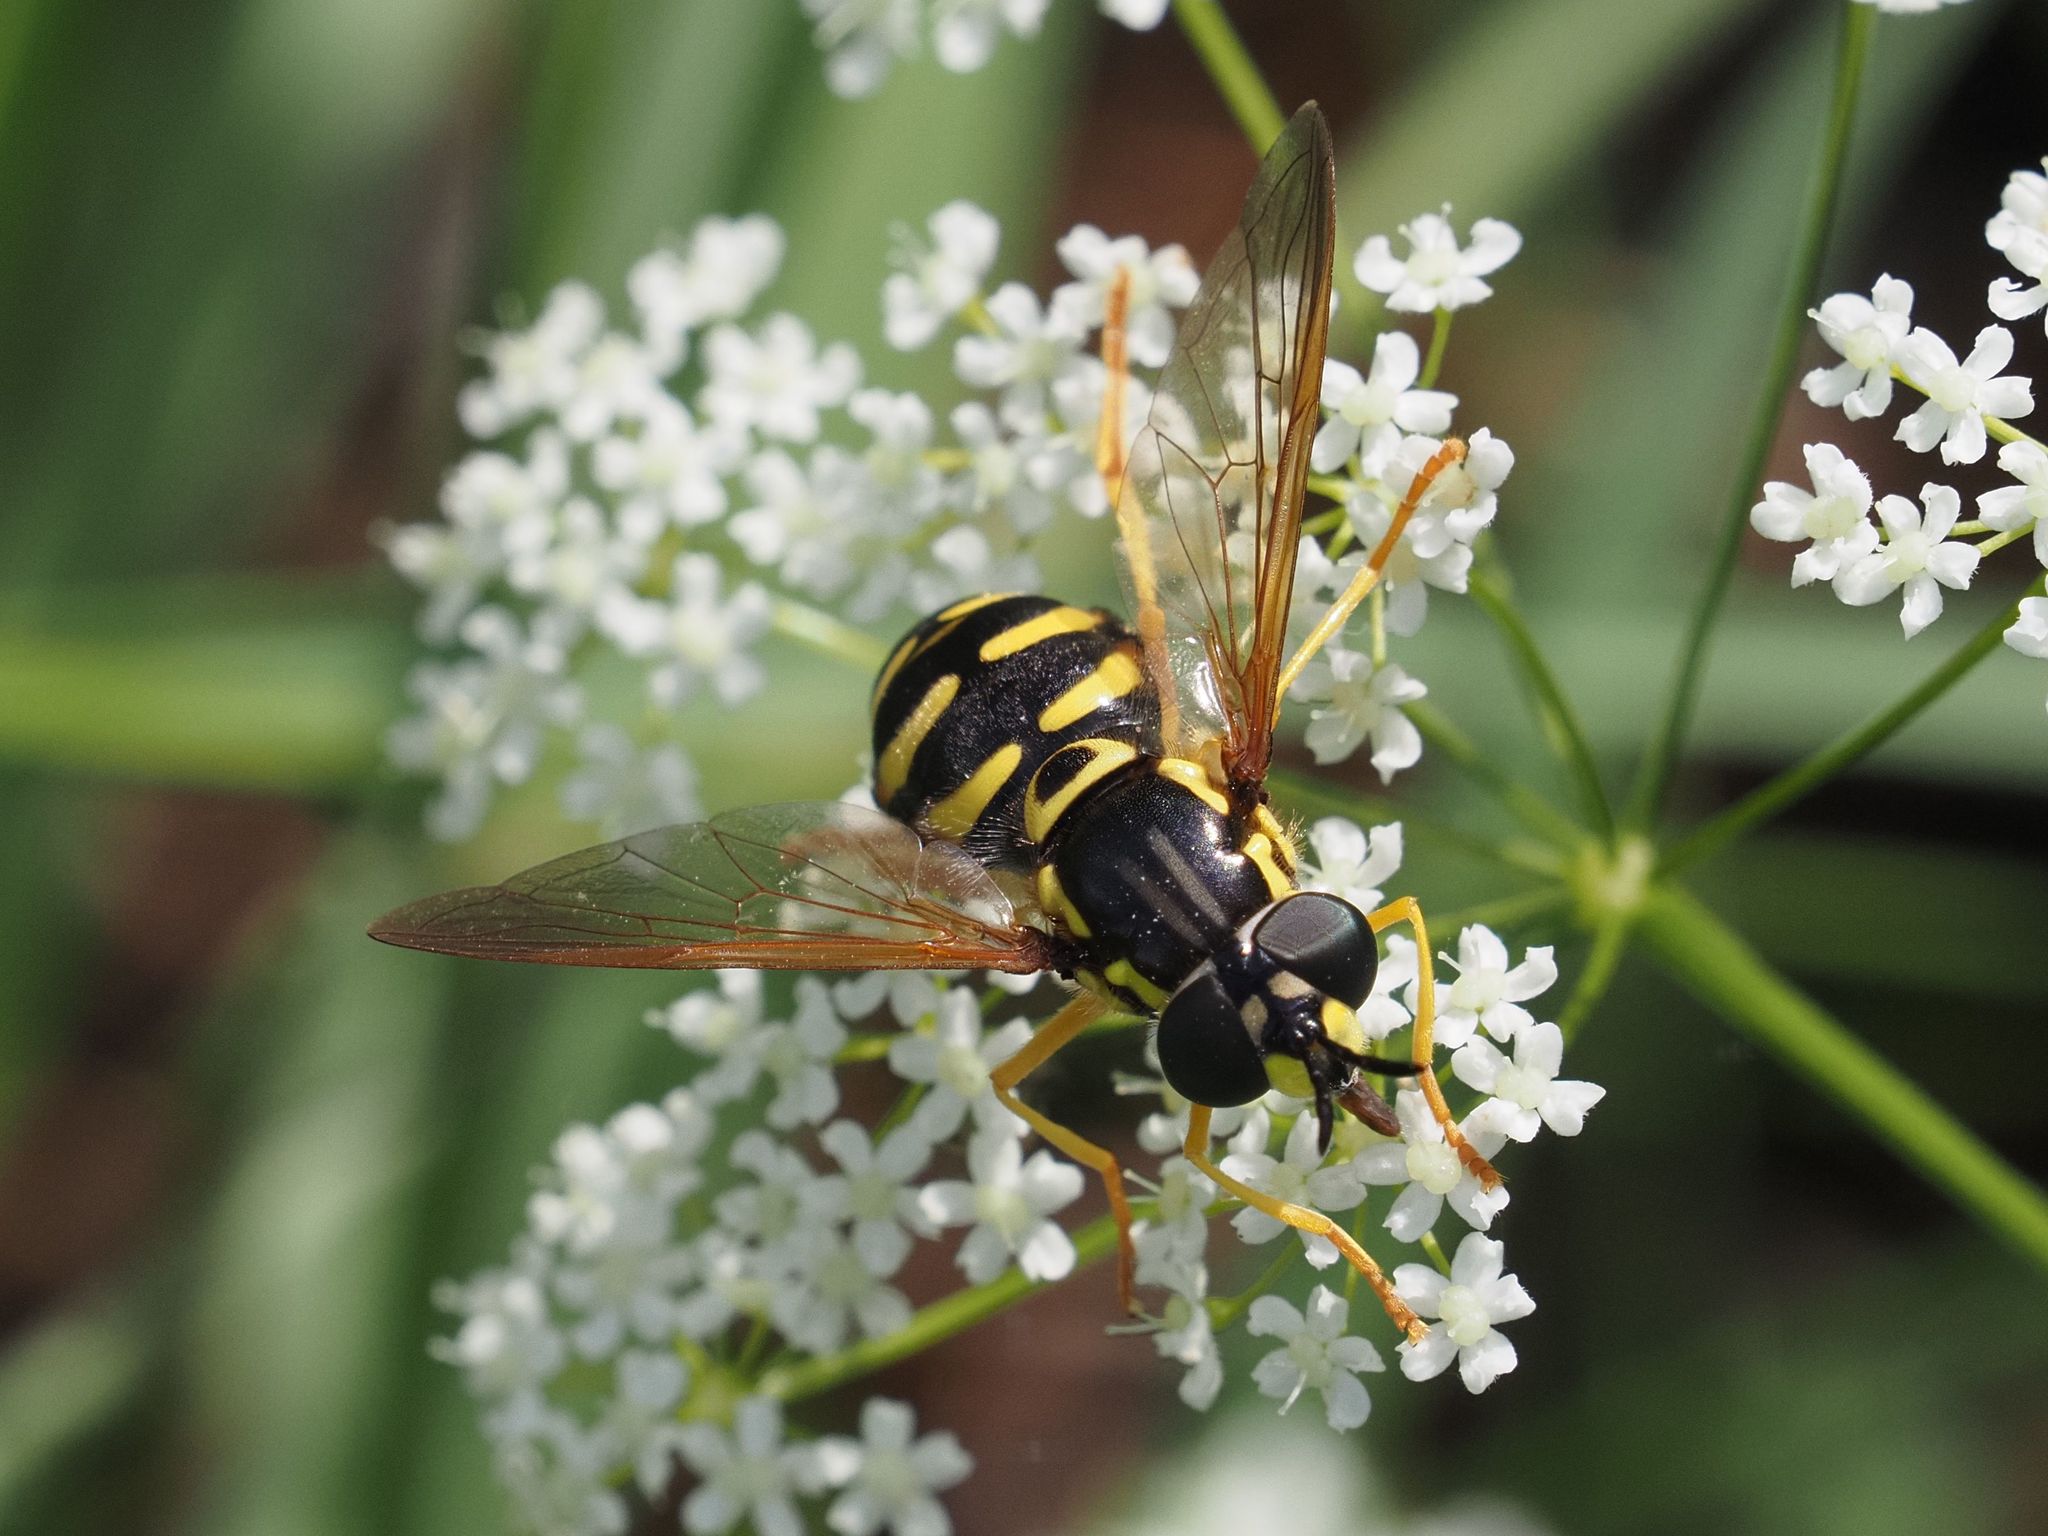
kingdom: Animalia
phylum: Arthropoda
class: Insecta
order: Diptera
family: Syrphidae
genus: Chrysotoxum
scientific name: Chrysotoxum elegans
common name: Zipperback
